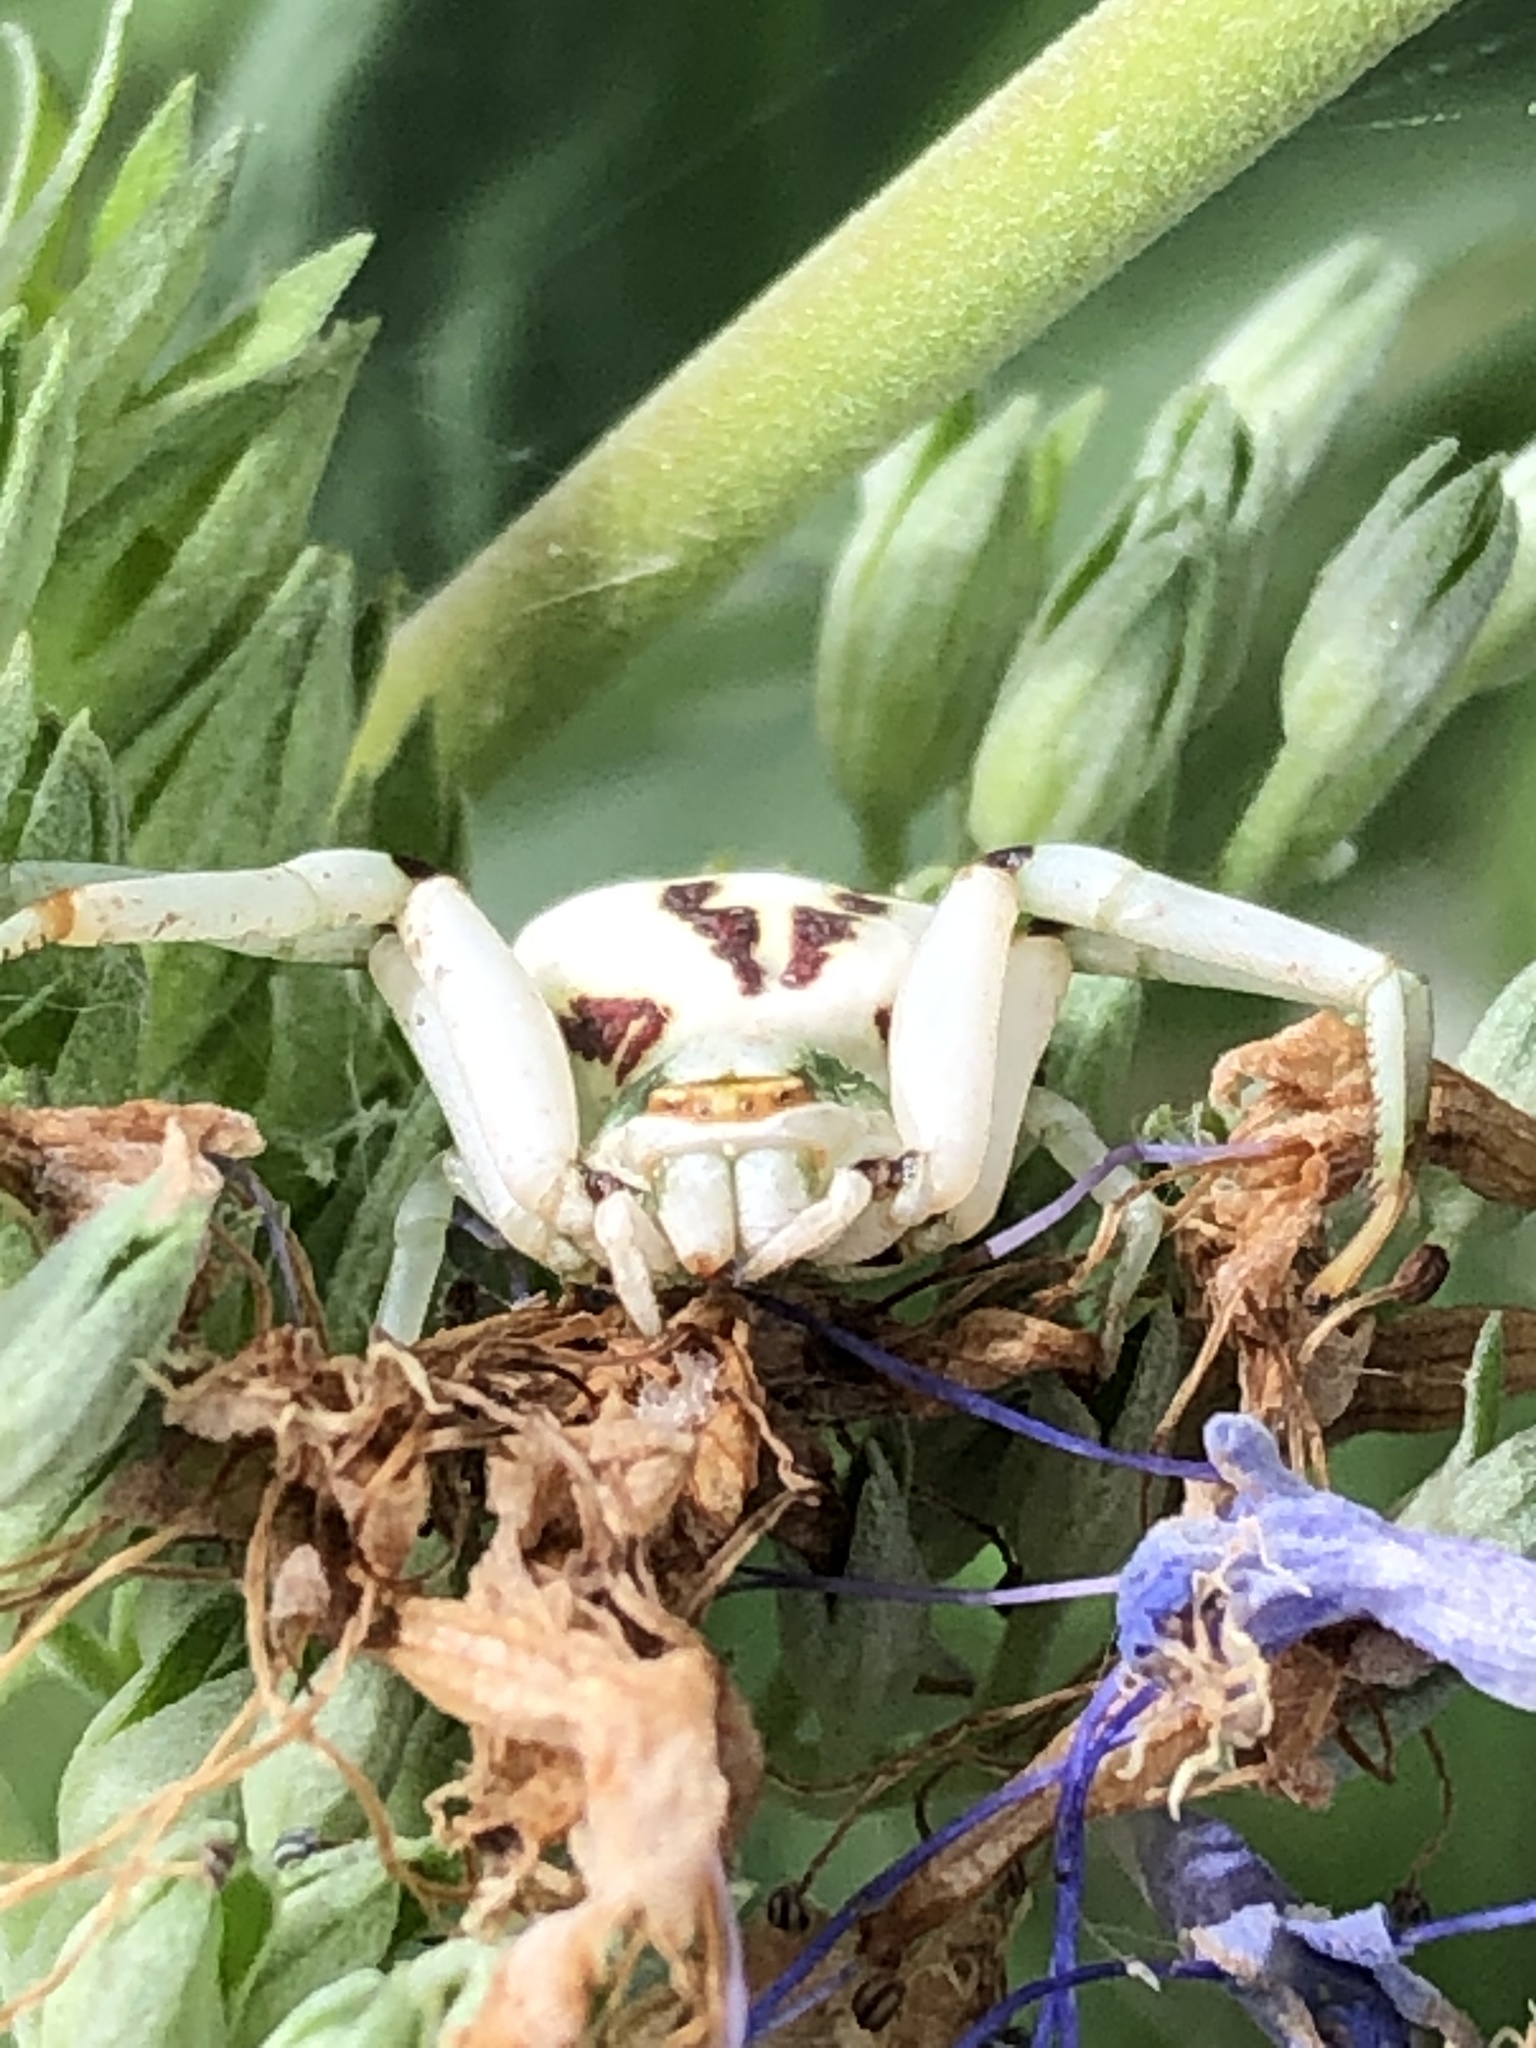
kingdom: Animalia
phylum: Arthropoda
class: Arachnida
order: Araneae
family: Thomisidae
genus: Misumenoides
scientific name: Misumenoides formosipes
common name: White-banded crab spider
